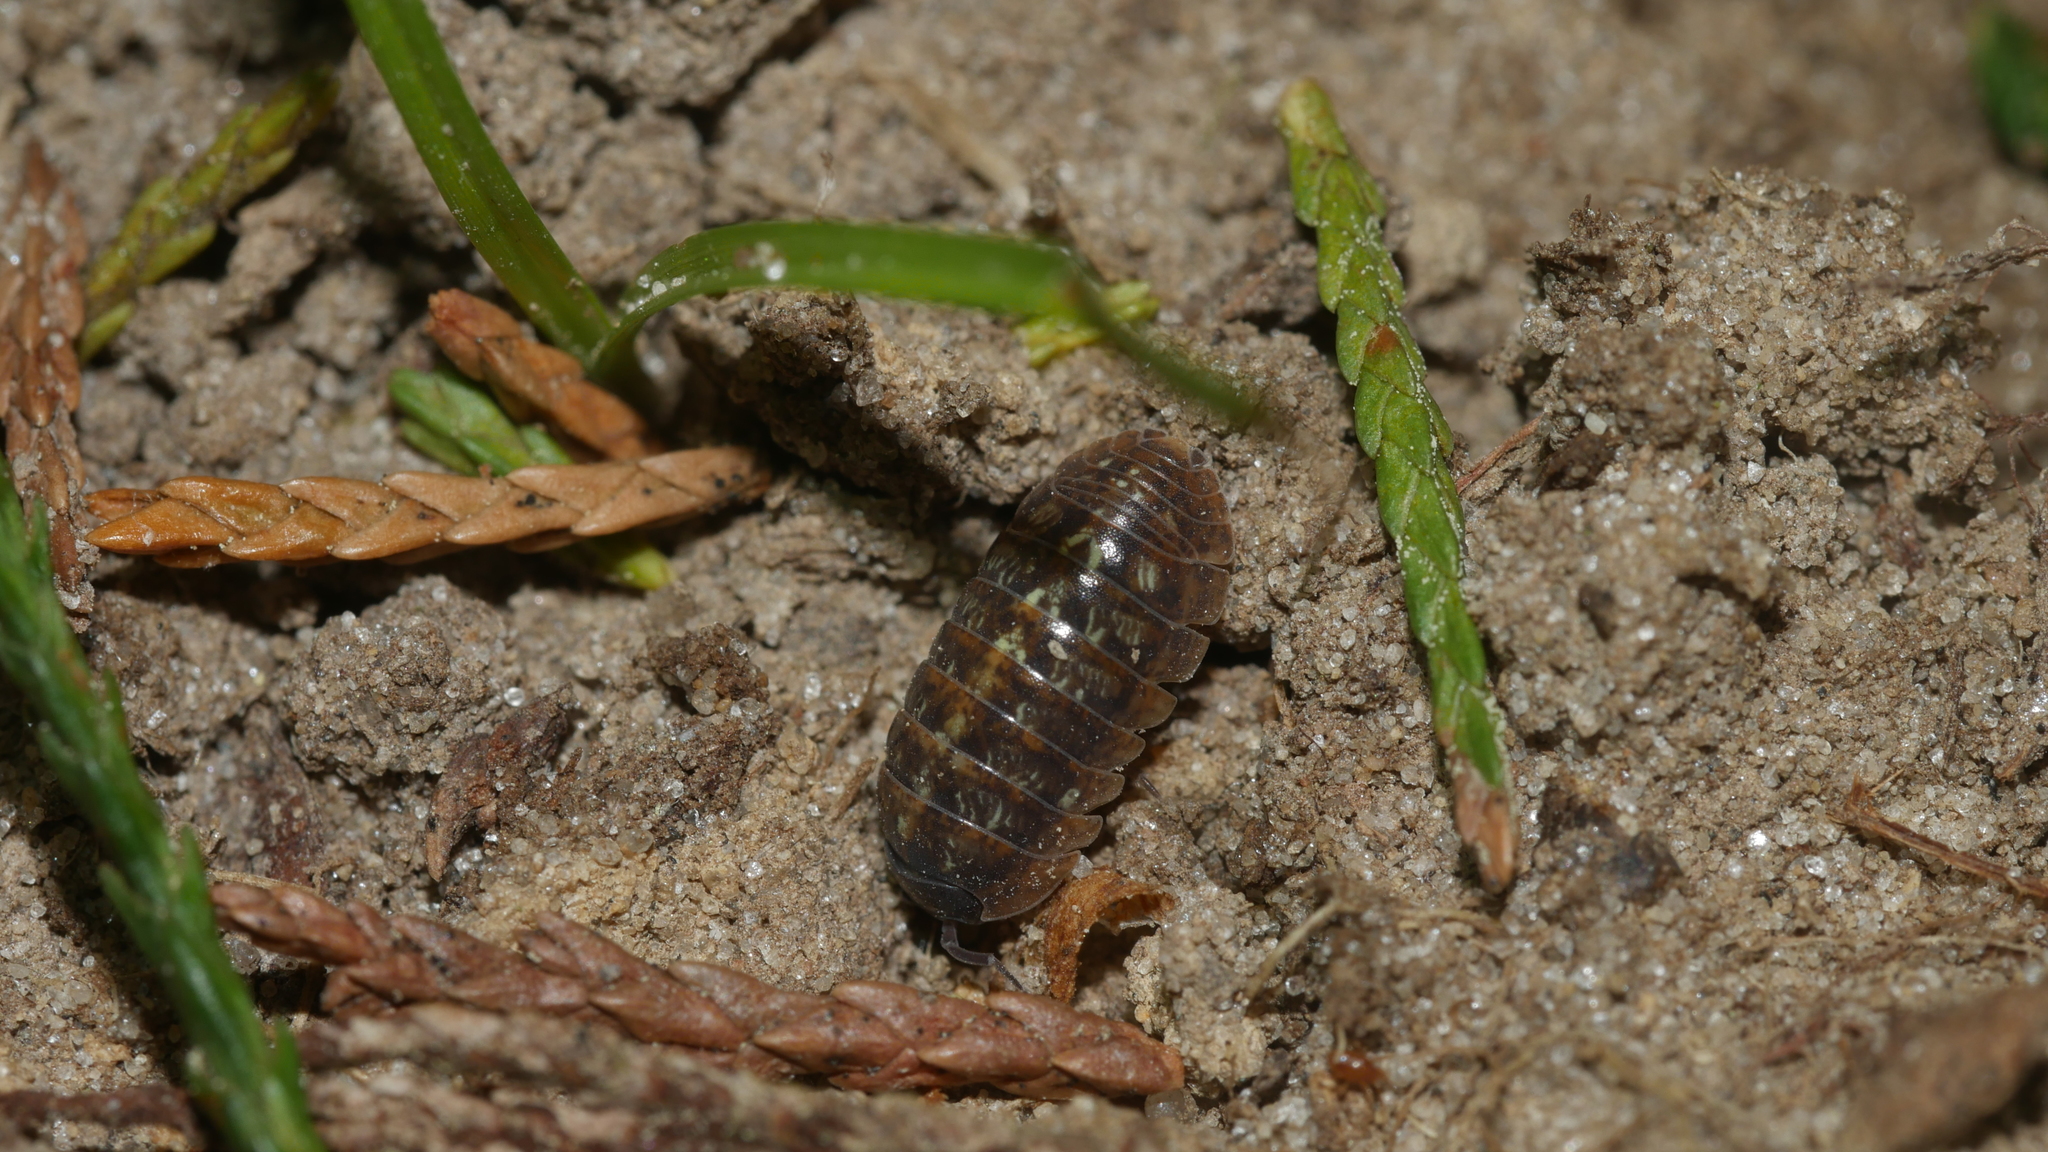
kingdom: Animalia
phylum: Arthropoda
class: Malacostraca
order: Isopoda
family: Armadillidiidae
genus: Armadillidium
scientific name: Armadillidium vulgare
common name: Common pill woodlouse
